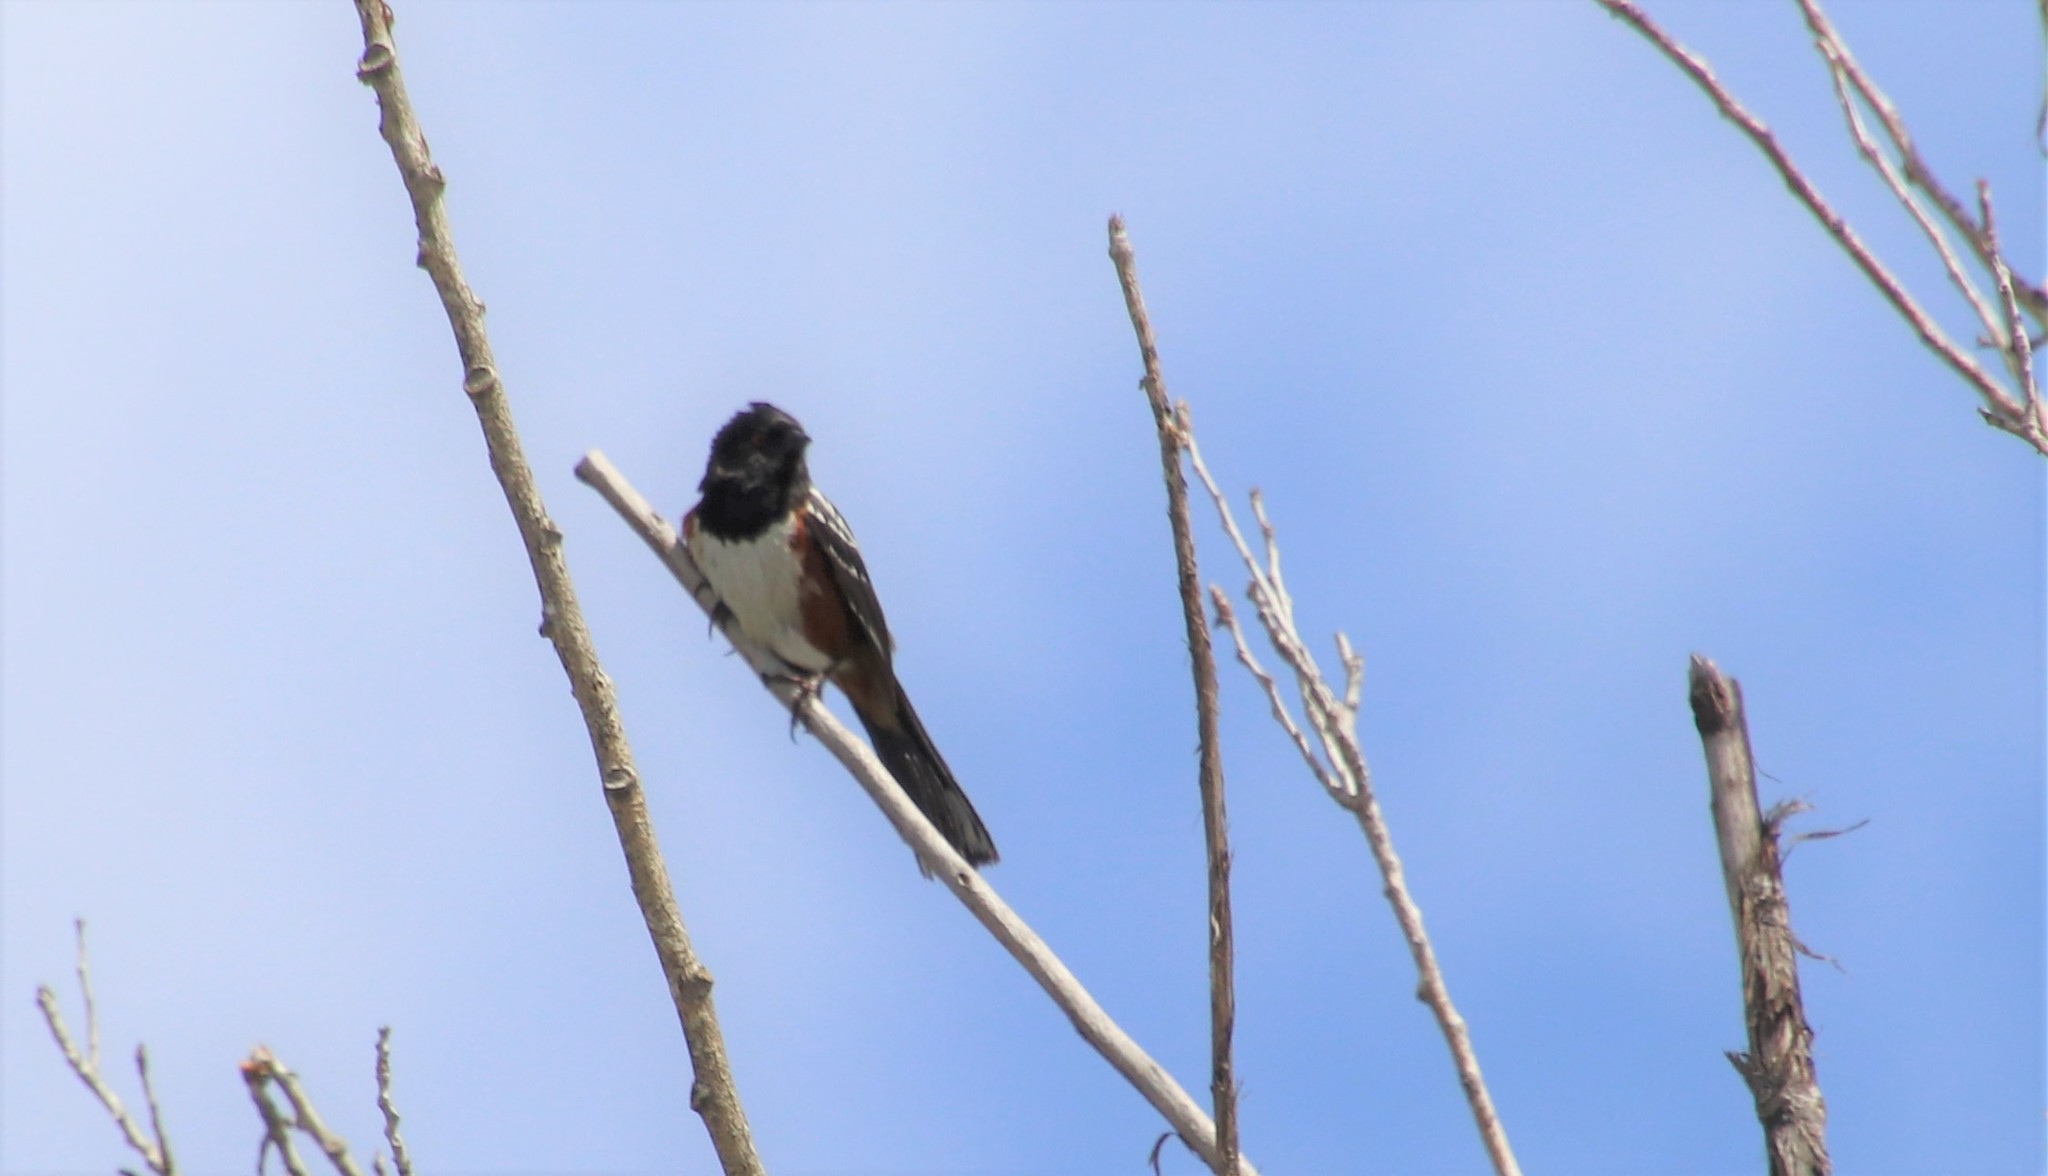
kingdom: Animalia
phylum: Chordata
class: Aves
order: Passeriformes
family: Passerellidae
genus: Pipilo
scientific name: Pipilo maculatus
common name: Spotted towhee
